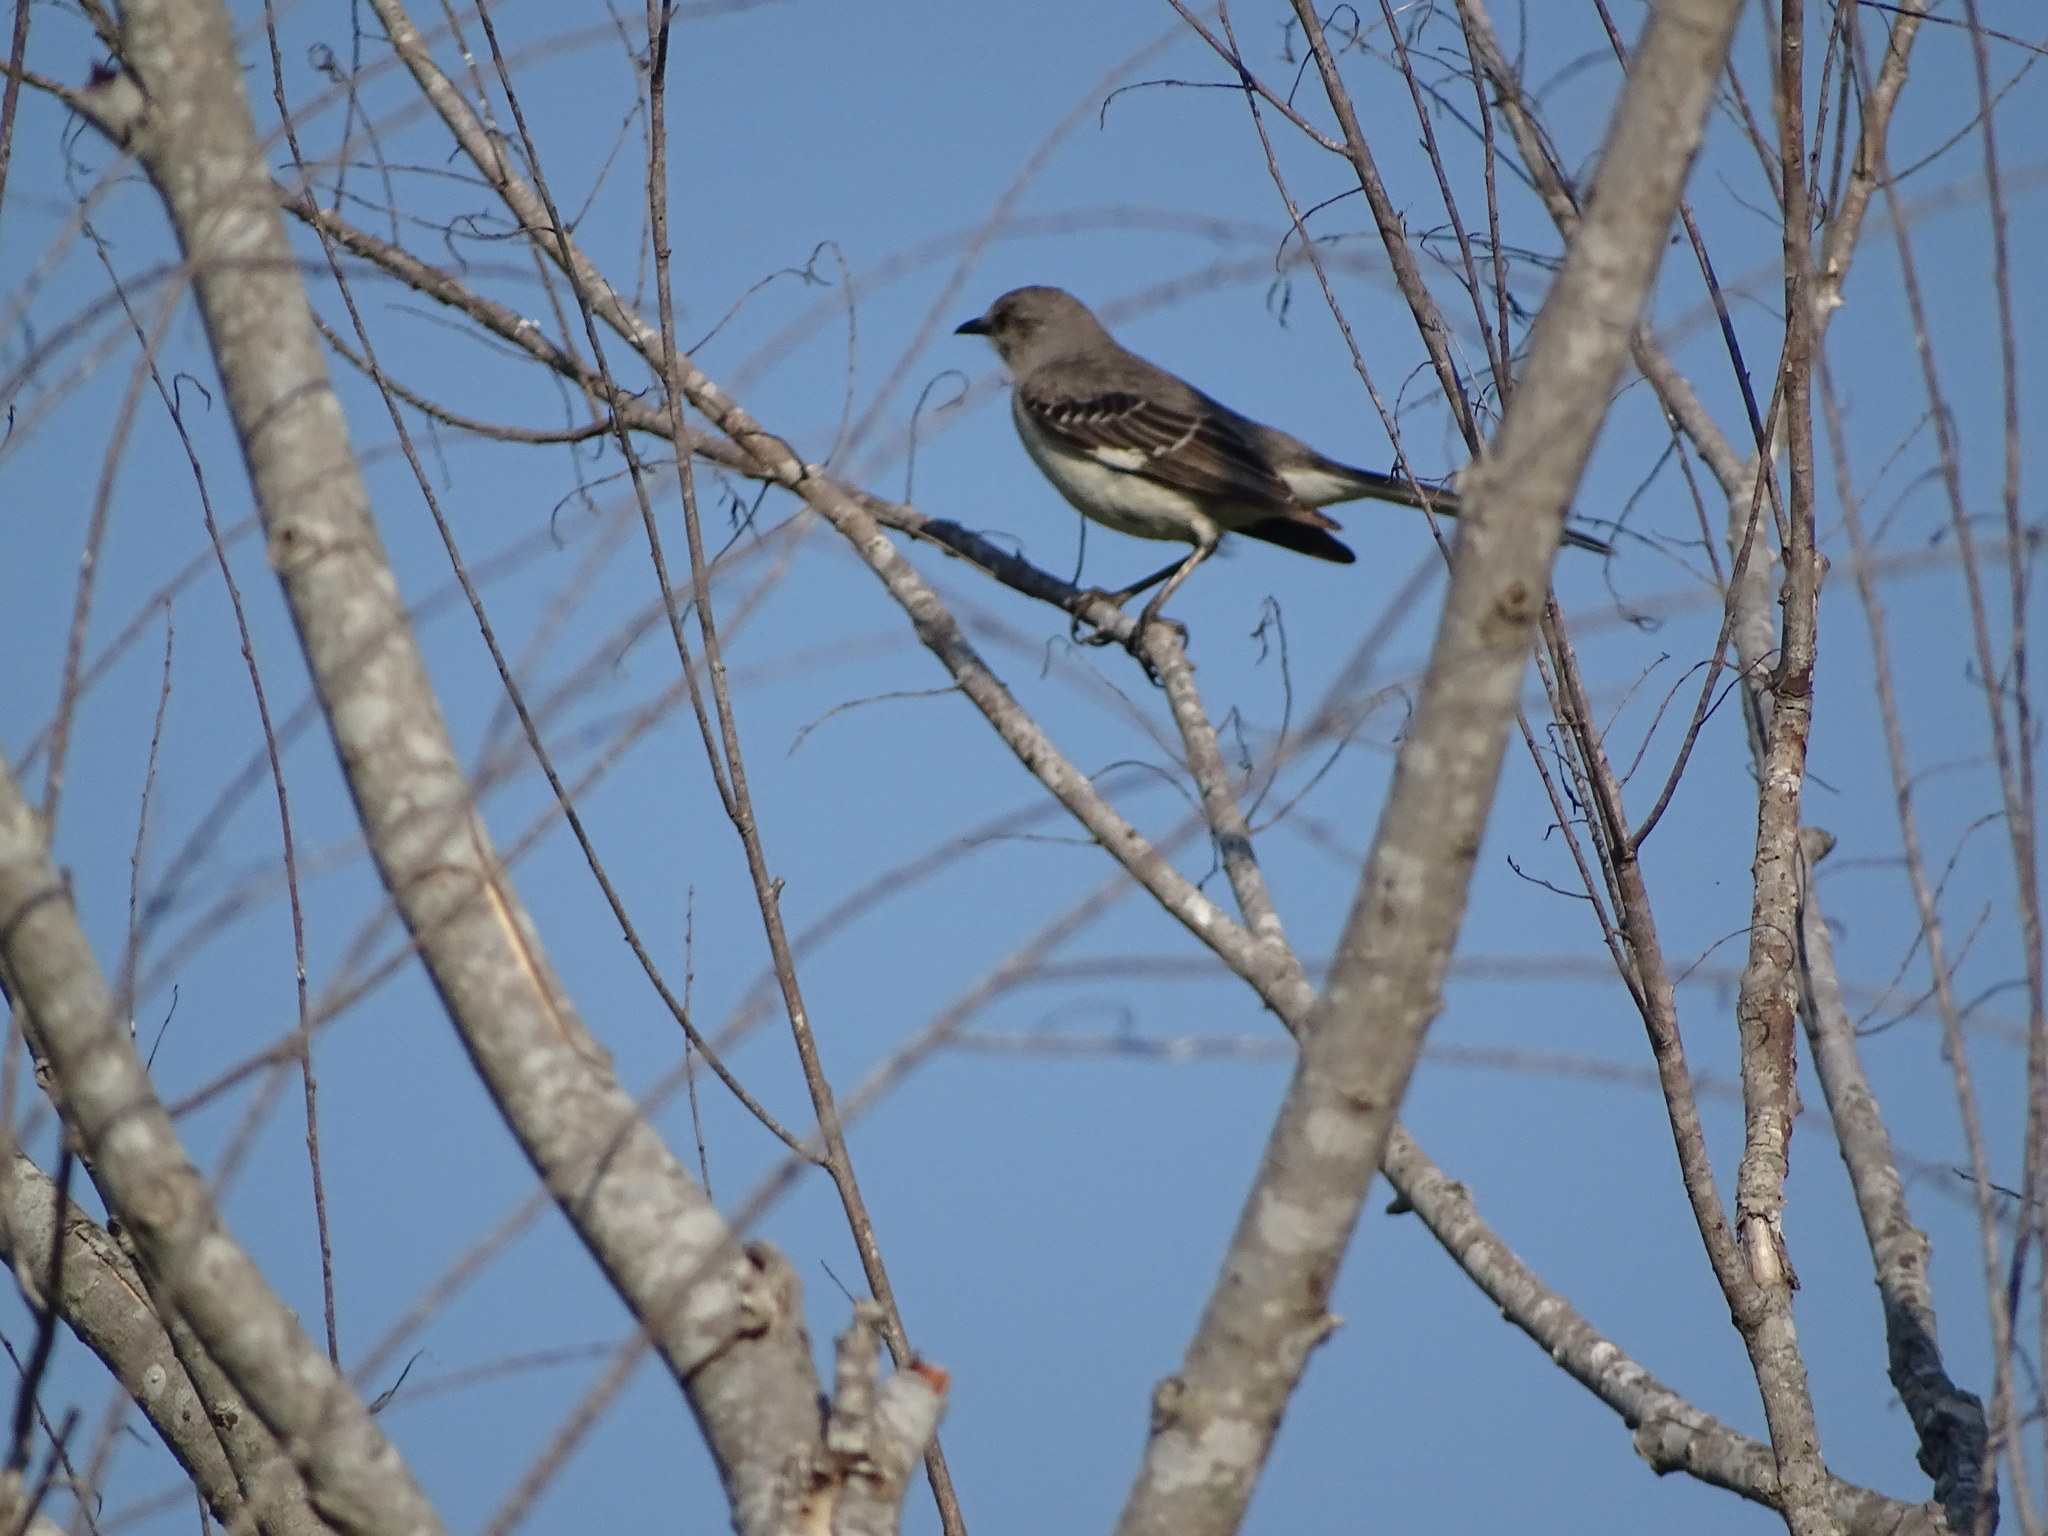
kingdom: Animalia
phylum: Chordata
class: Aves
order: Passeriformes
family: Mimidae
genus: Mimus
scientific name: Mimus polyglottos
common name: Northern mockingbird
